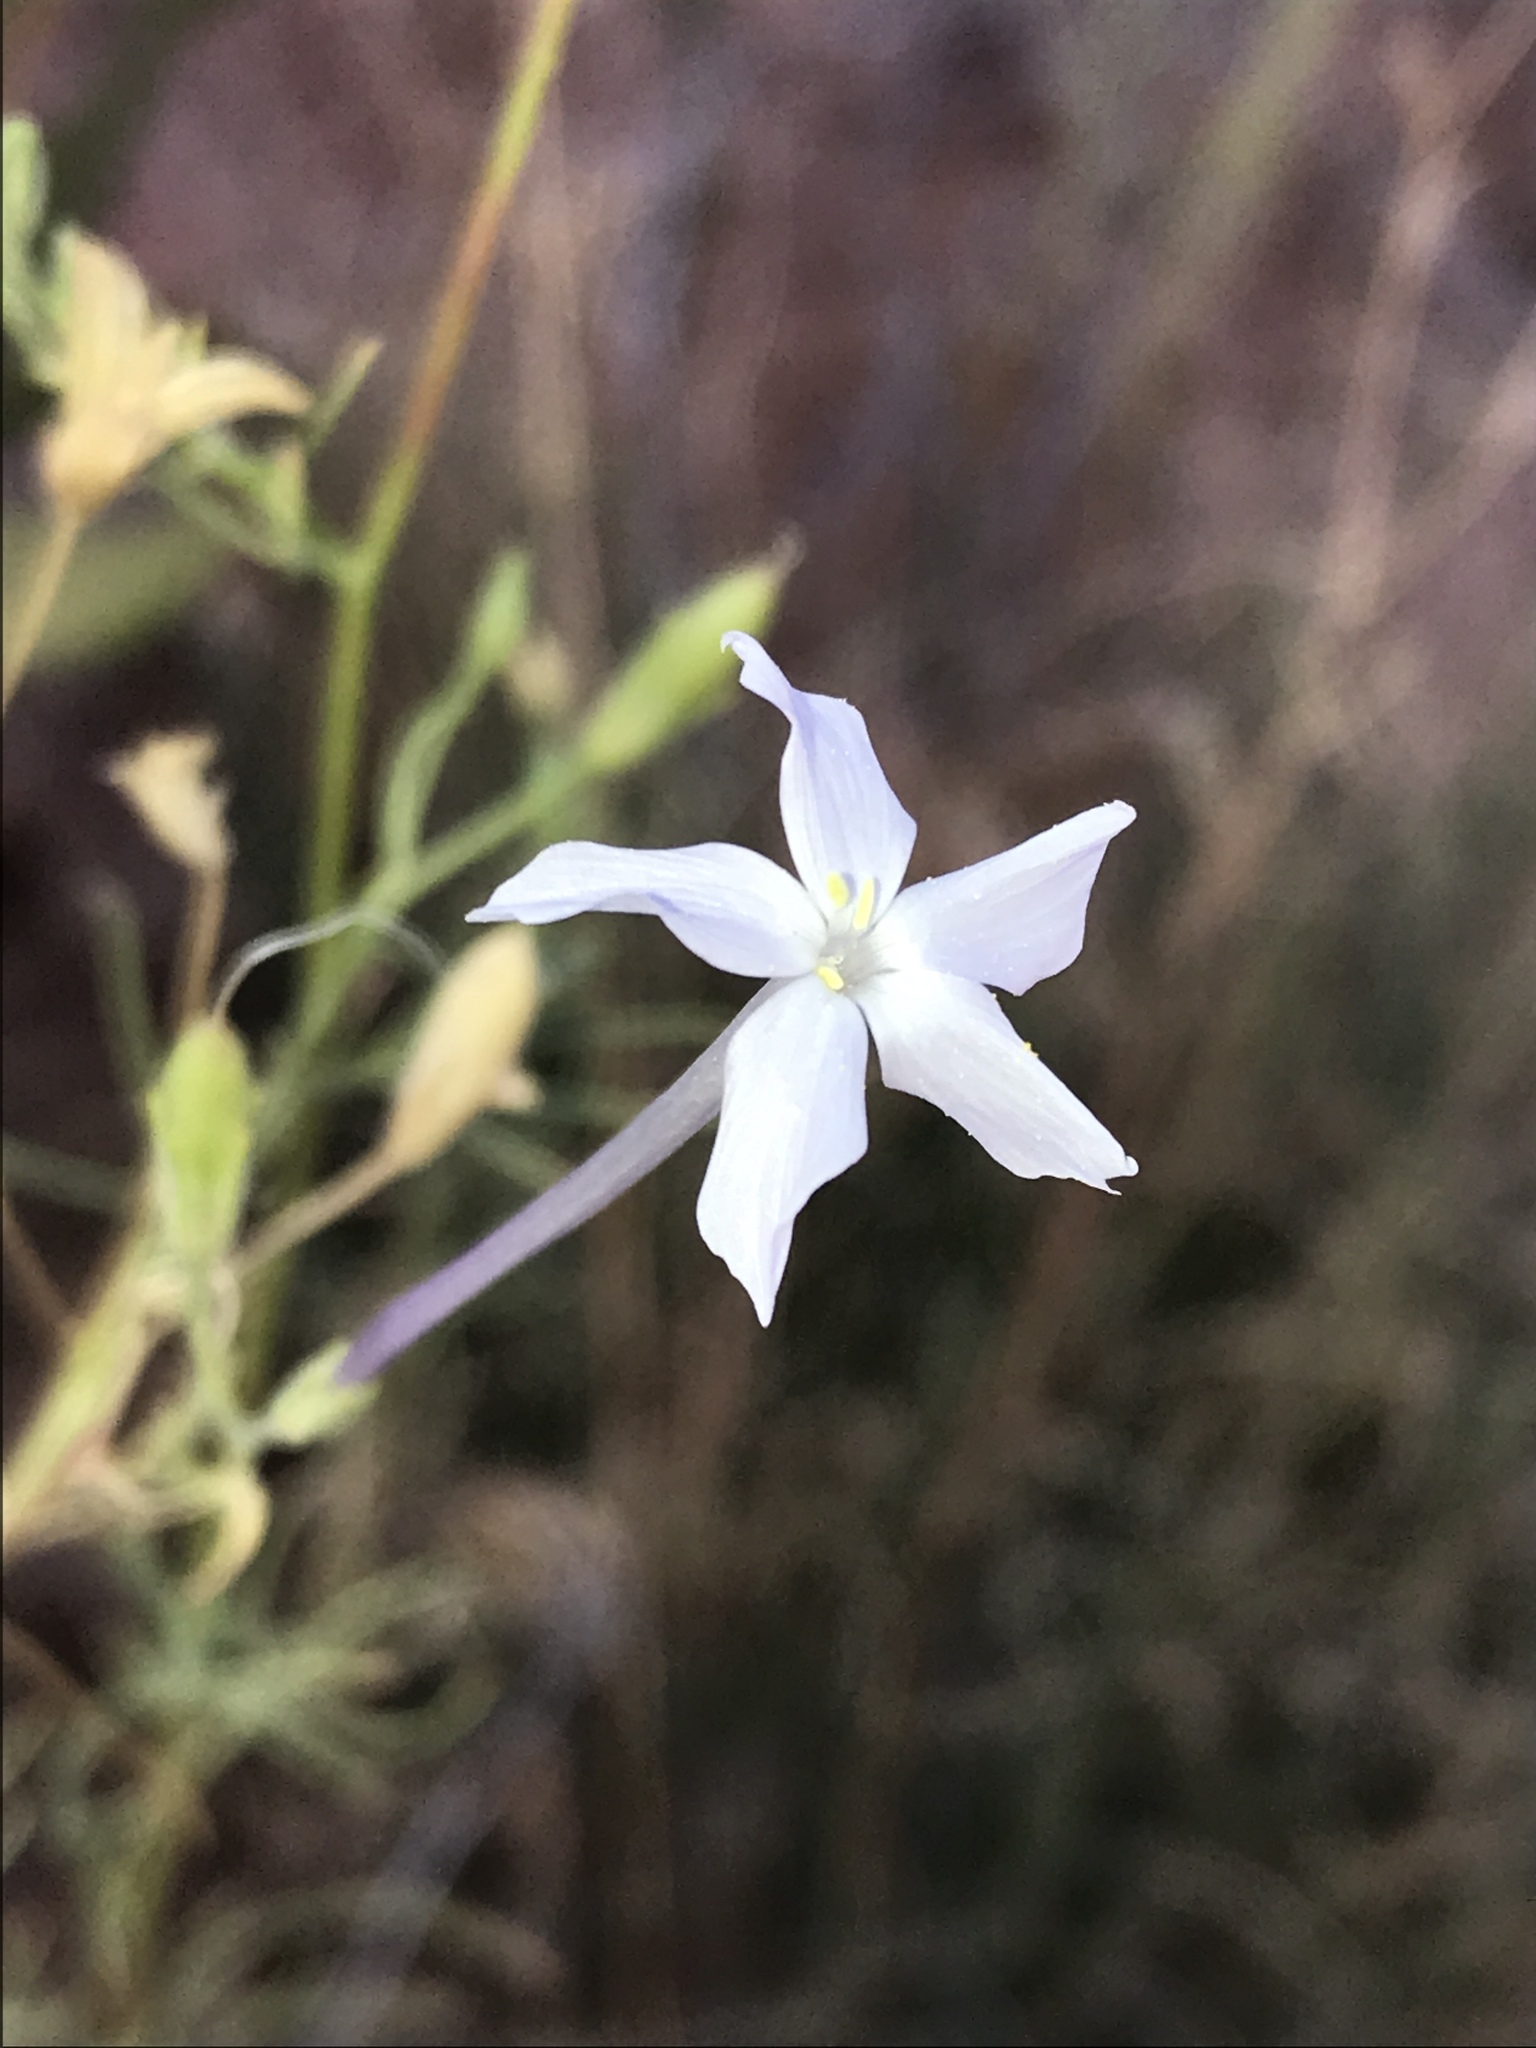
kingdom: Plantae
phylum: Tracheophyta
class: Magnoliopsida
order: Ericales
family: Polemoniaceae
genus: Ipomopsis
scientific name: Ipomopsis longiflora
